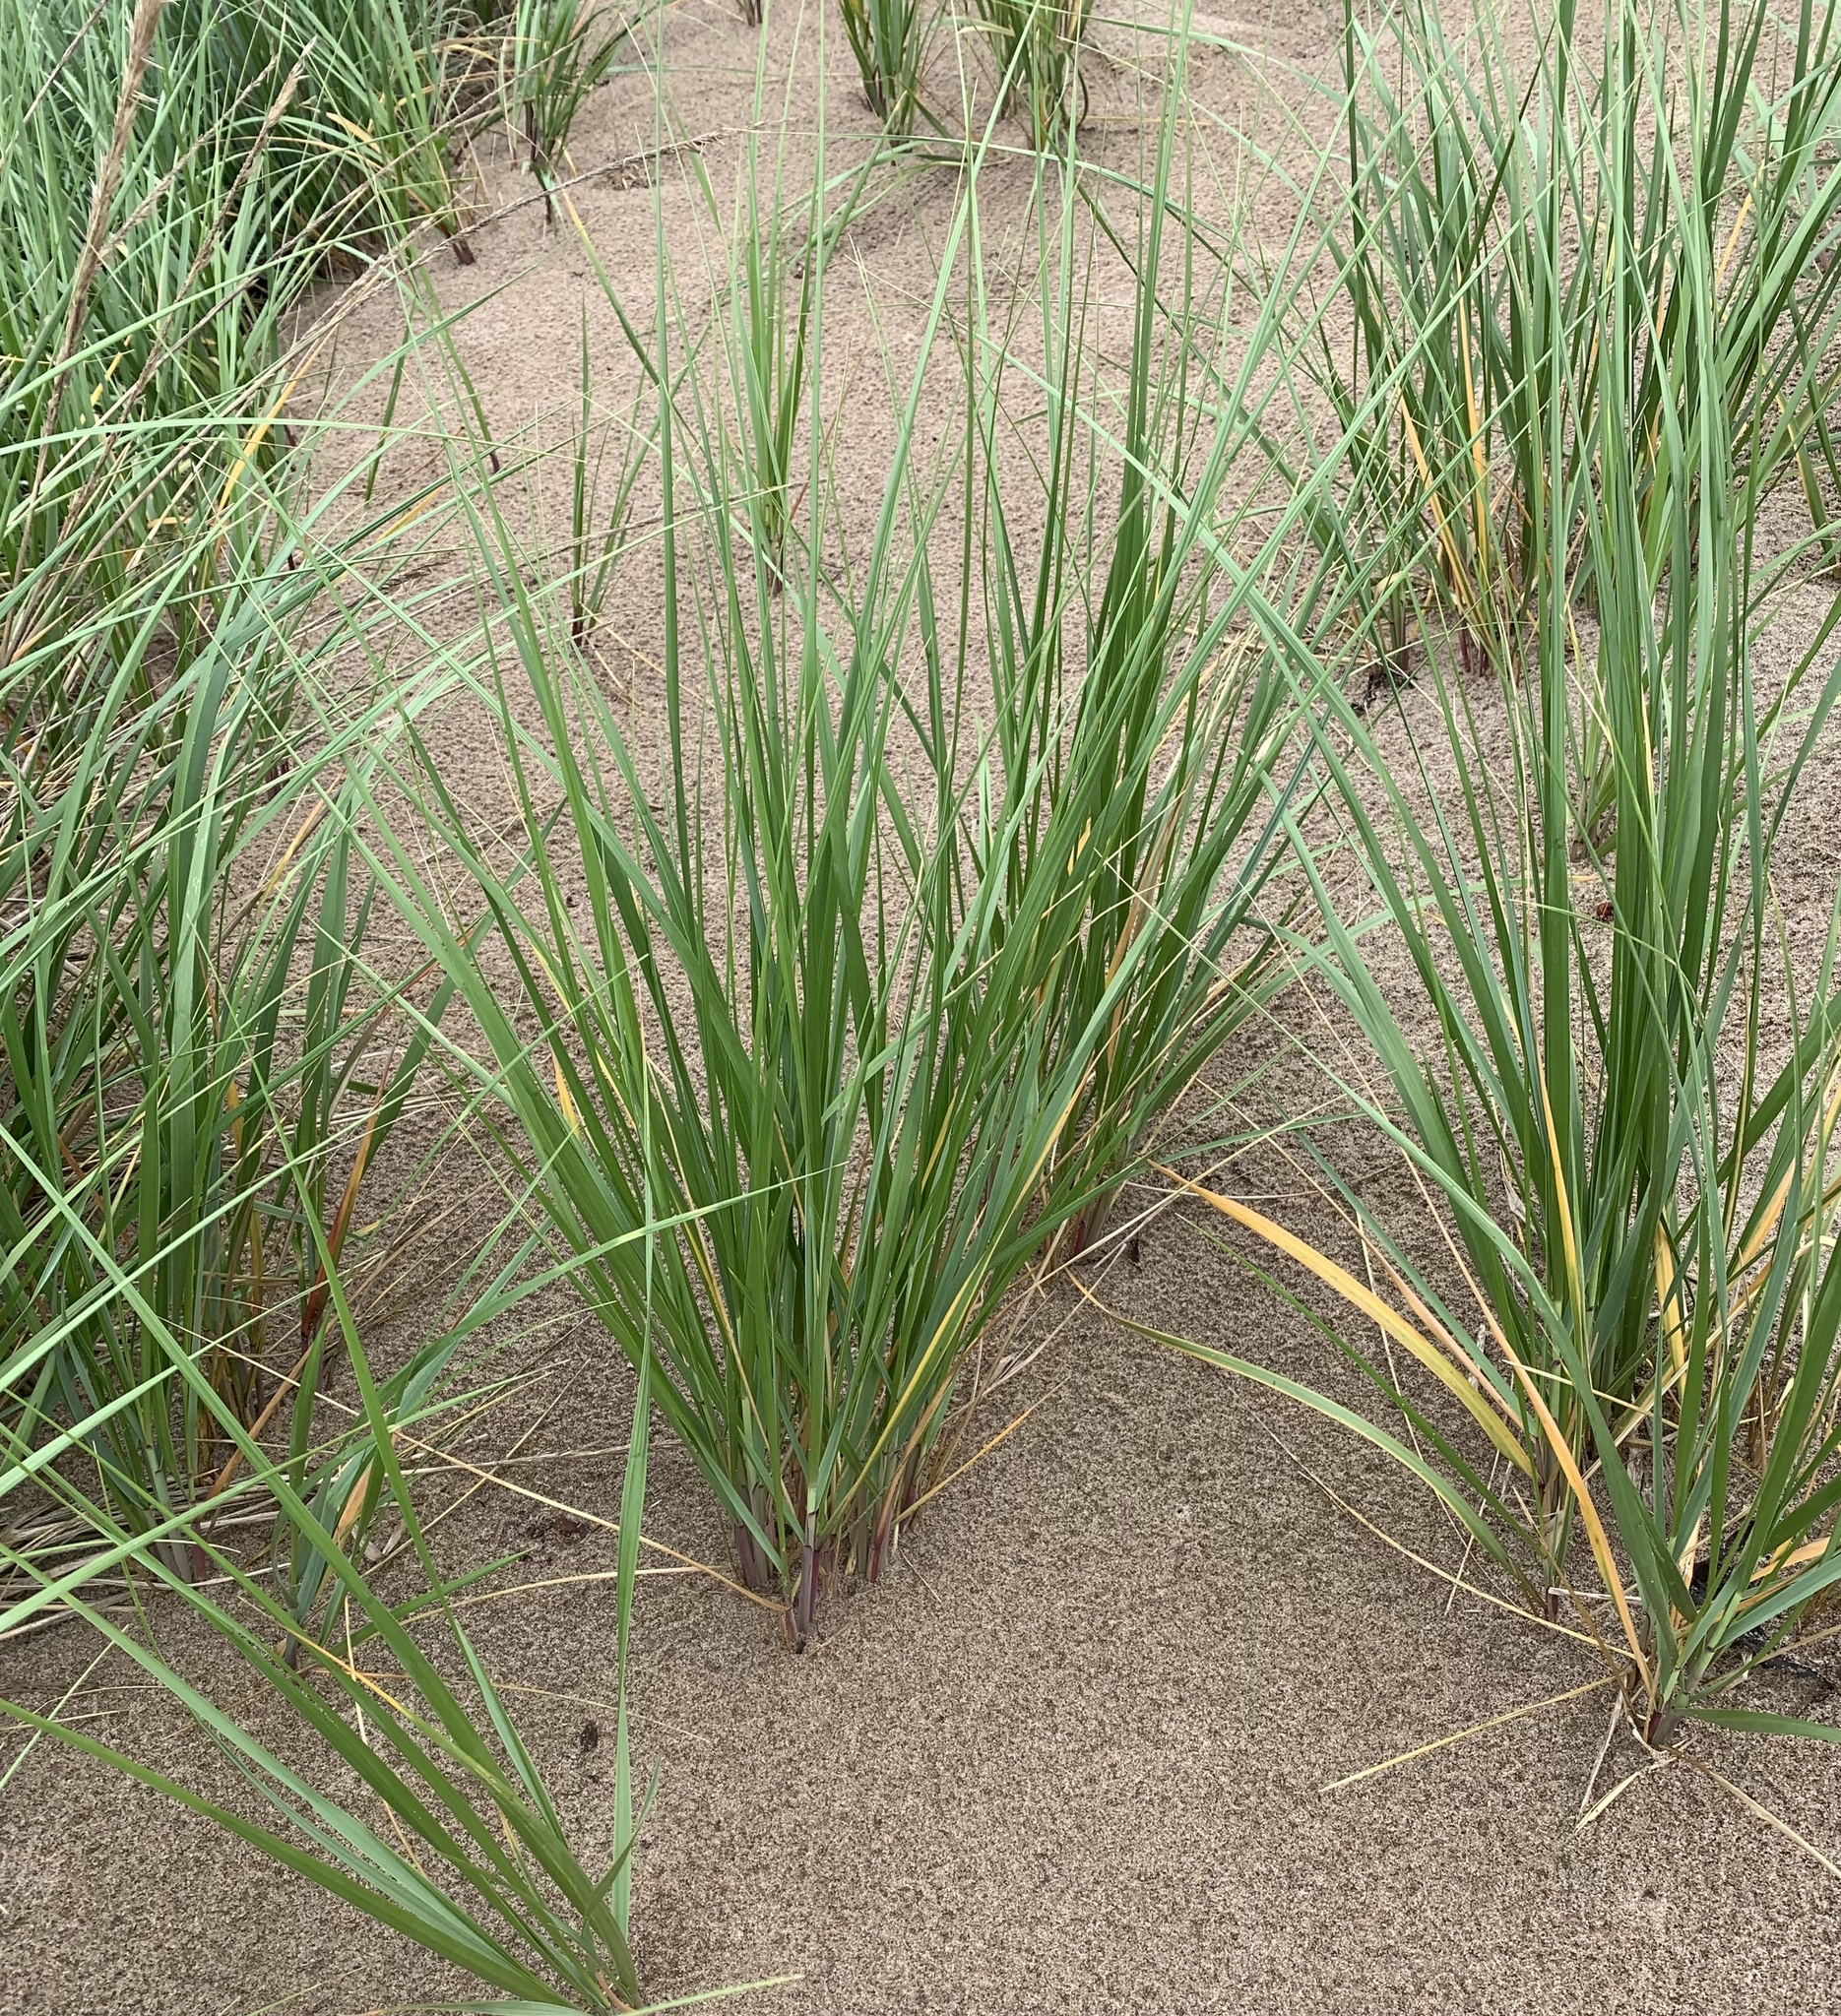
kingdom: Plantae
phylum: Tracheophyta
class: Liliopsida
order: Poales
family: Poaceae
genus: Calamagrostis
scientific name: Calamagrostis breviligulata
